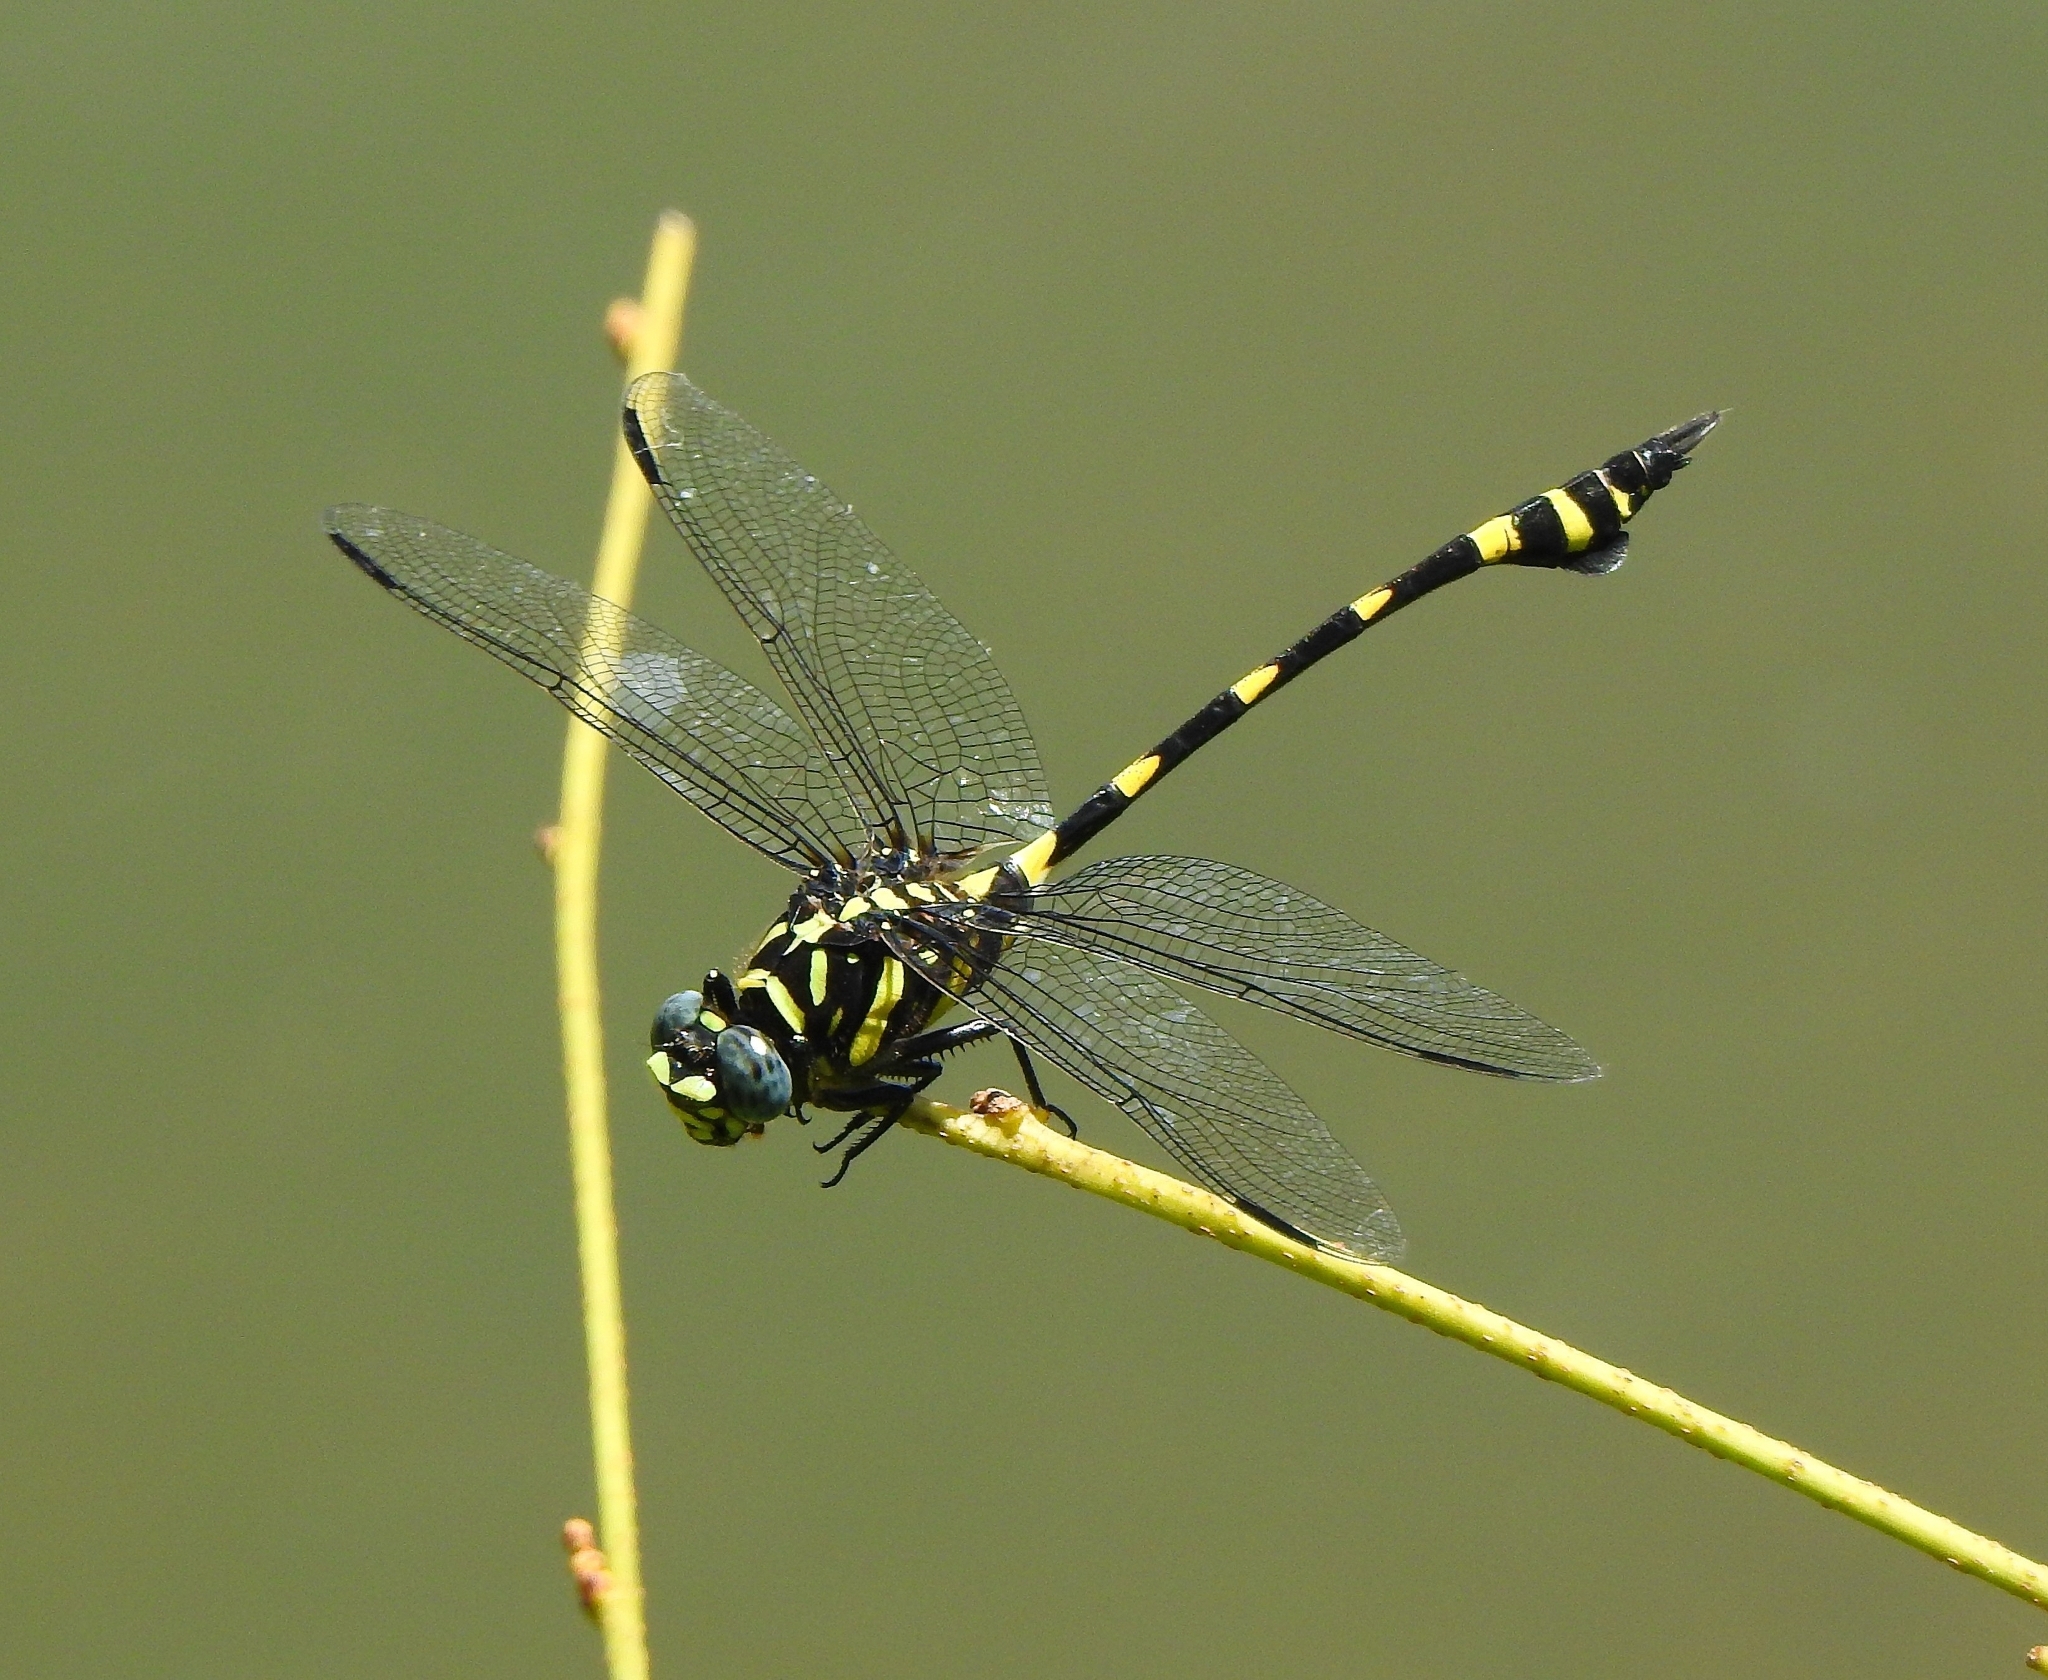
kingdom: Animalia
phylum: Arthropoda
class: Insecta
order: Odonata
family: Gomphidae
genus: Ictinogomphus
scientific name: Ictinogomphus rapax
